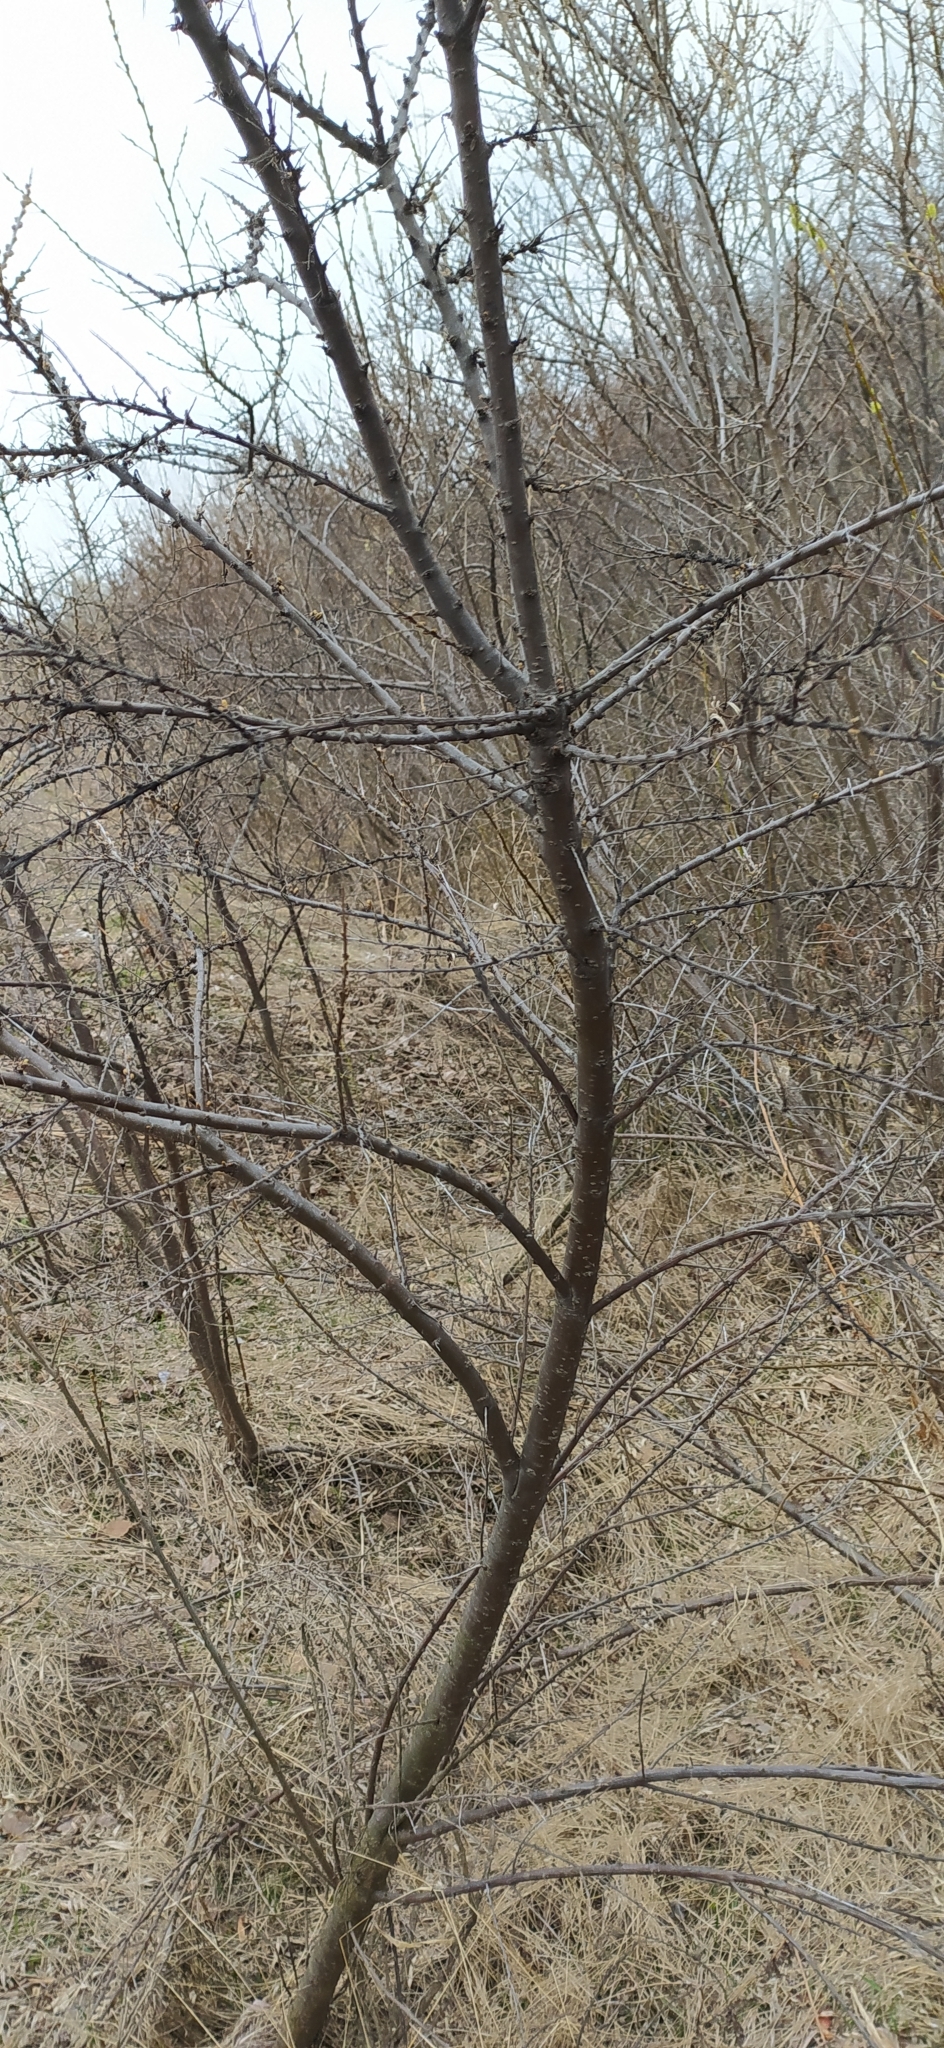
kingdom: Plantae
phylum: Tracheophyta
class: Magnoliopsida
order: Rosales
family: Elaeagnaceae
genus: Hippophae
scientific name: Hippophae rhamnoides
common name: Sea-buckthorn
